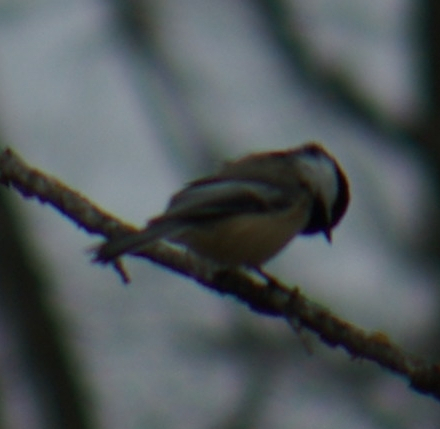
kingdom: Animalia
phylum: Chordata
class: Aves
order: Passeriformes
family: Paridae
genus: Poecile
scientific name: Poecile atricapillus
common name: Black-capped chickadee
